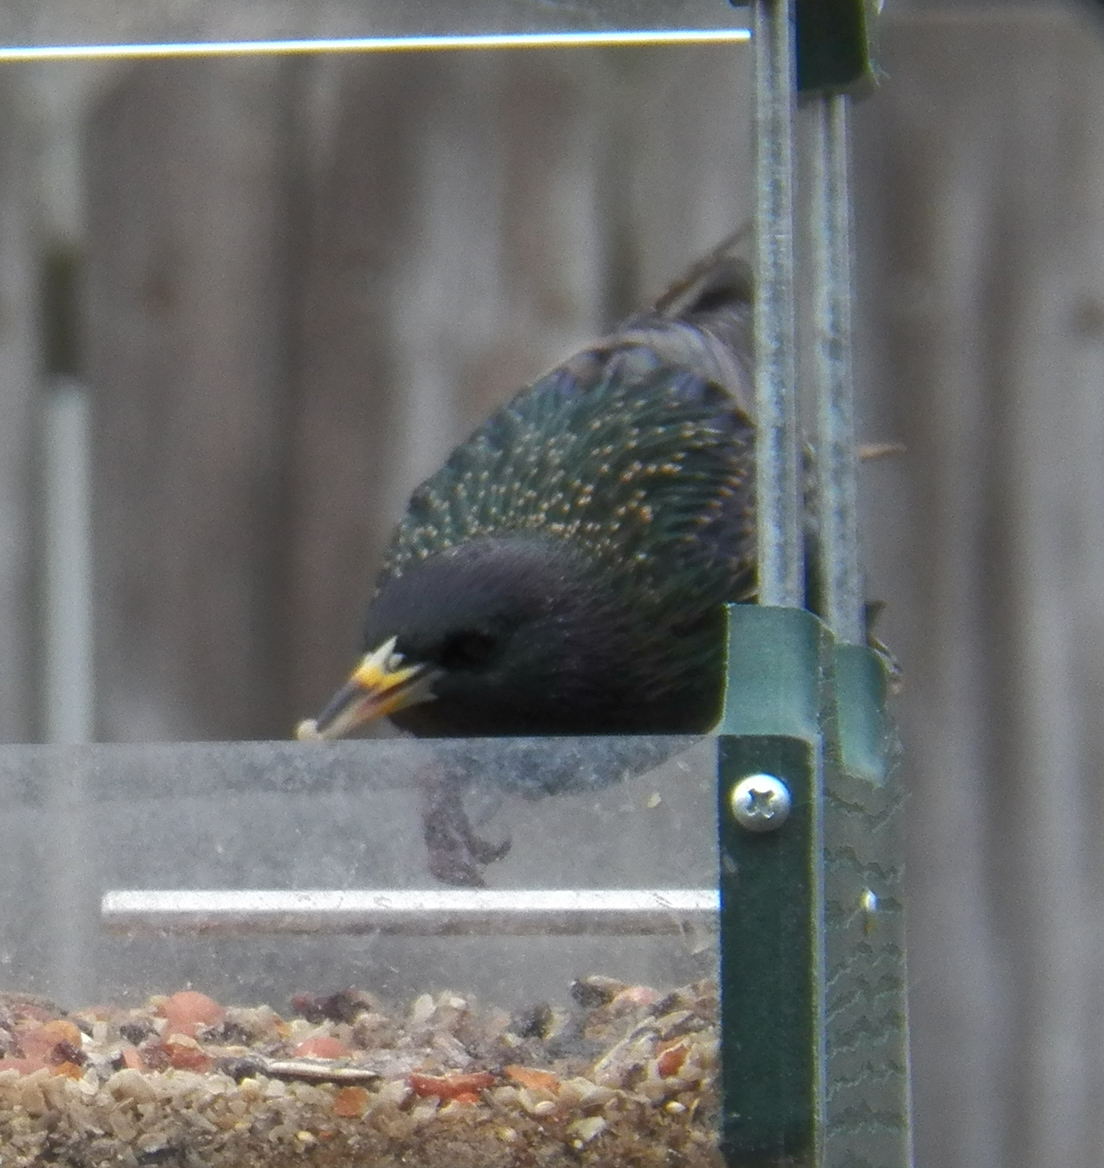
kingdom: Animalia
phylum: Chordata
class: Aves
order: Passeriformes
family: Sturnidae
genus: Sturnus
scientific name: Sturnus vulgaris
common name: Common starling
